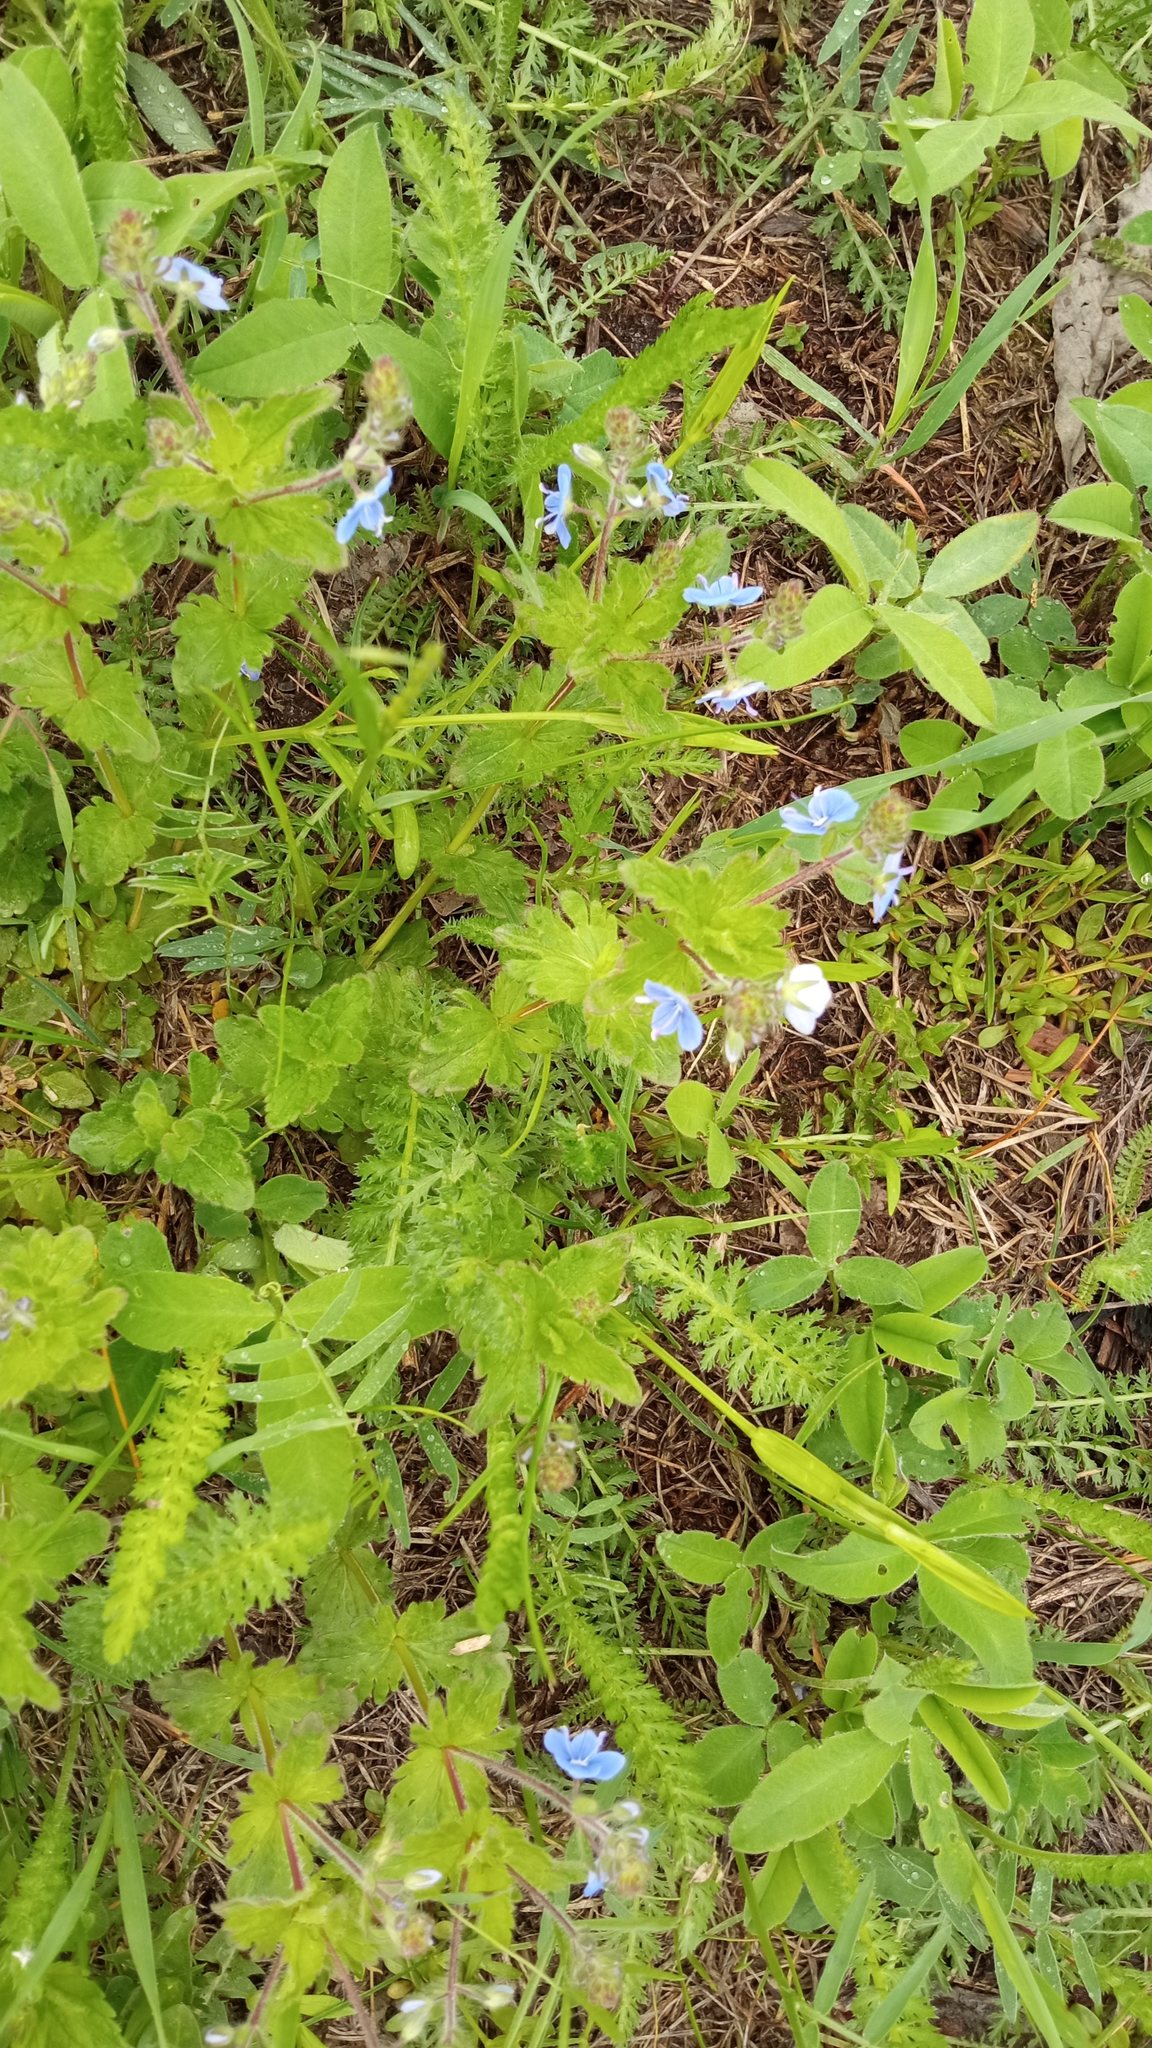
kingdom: Plantae
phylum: Tracheophyta
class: Magnoliopsida
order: Lamiales
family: Plantaginaceae
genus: Veronica
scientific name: Veronica chamaedrys
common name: Germander speedwell
